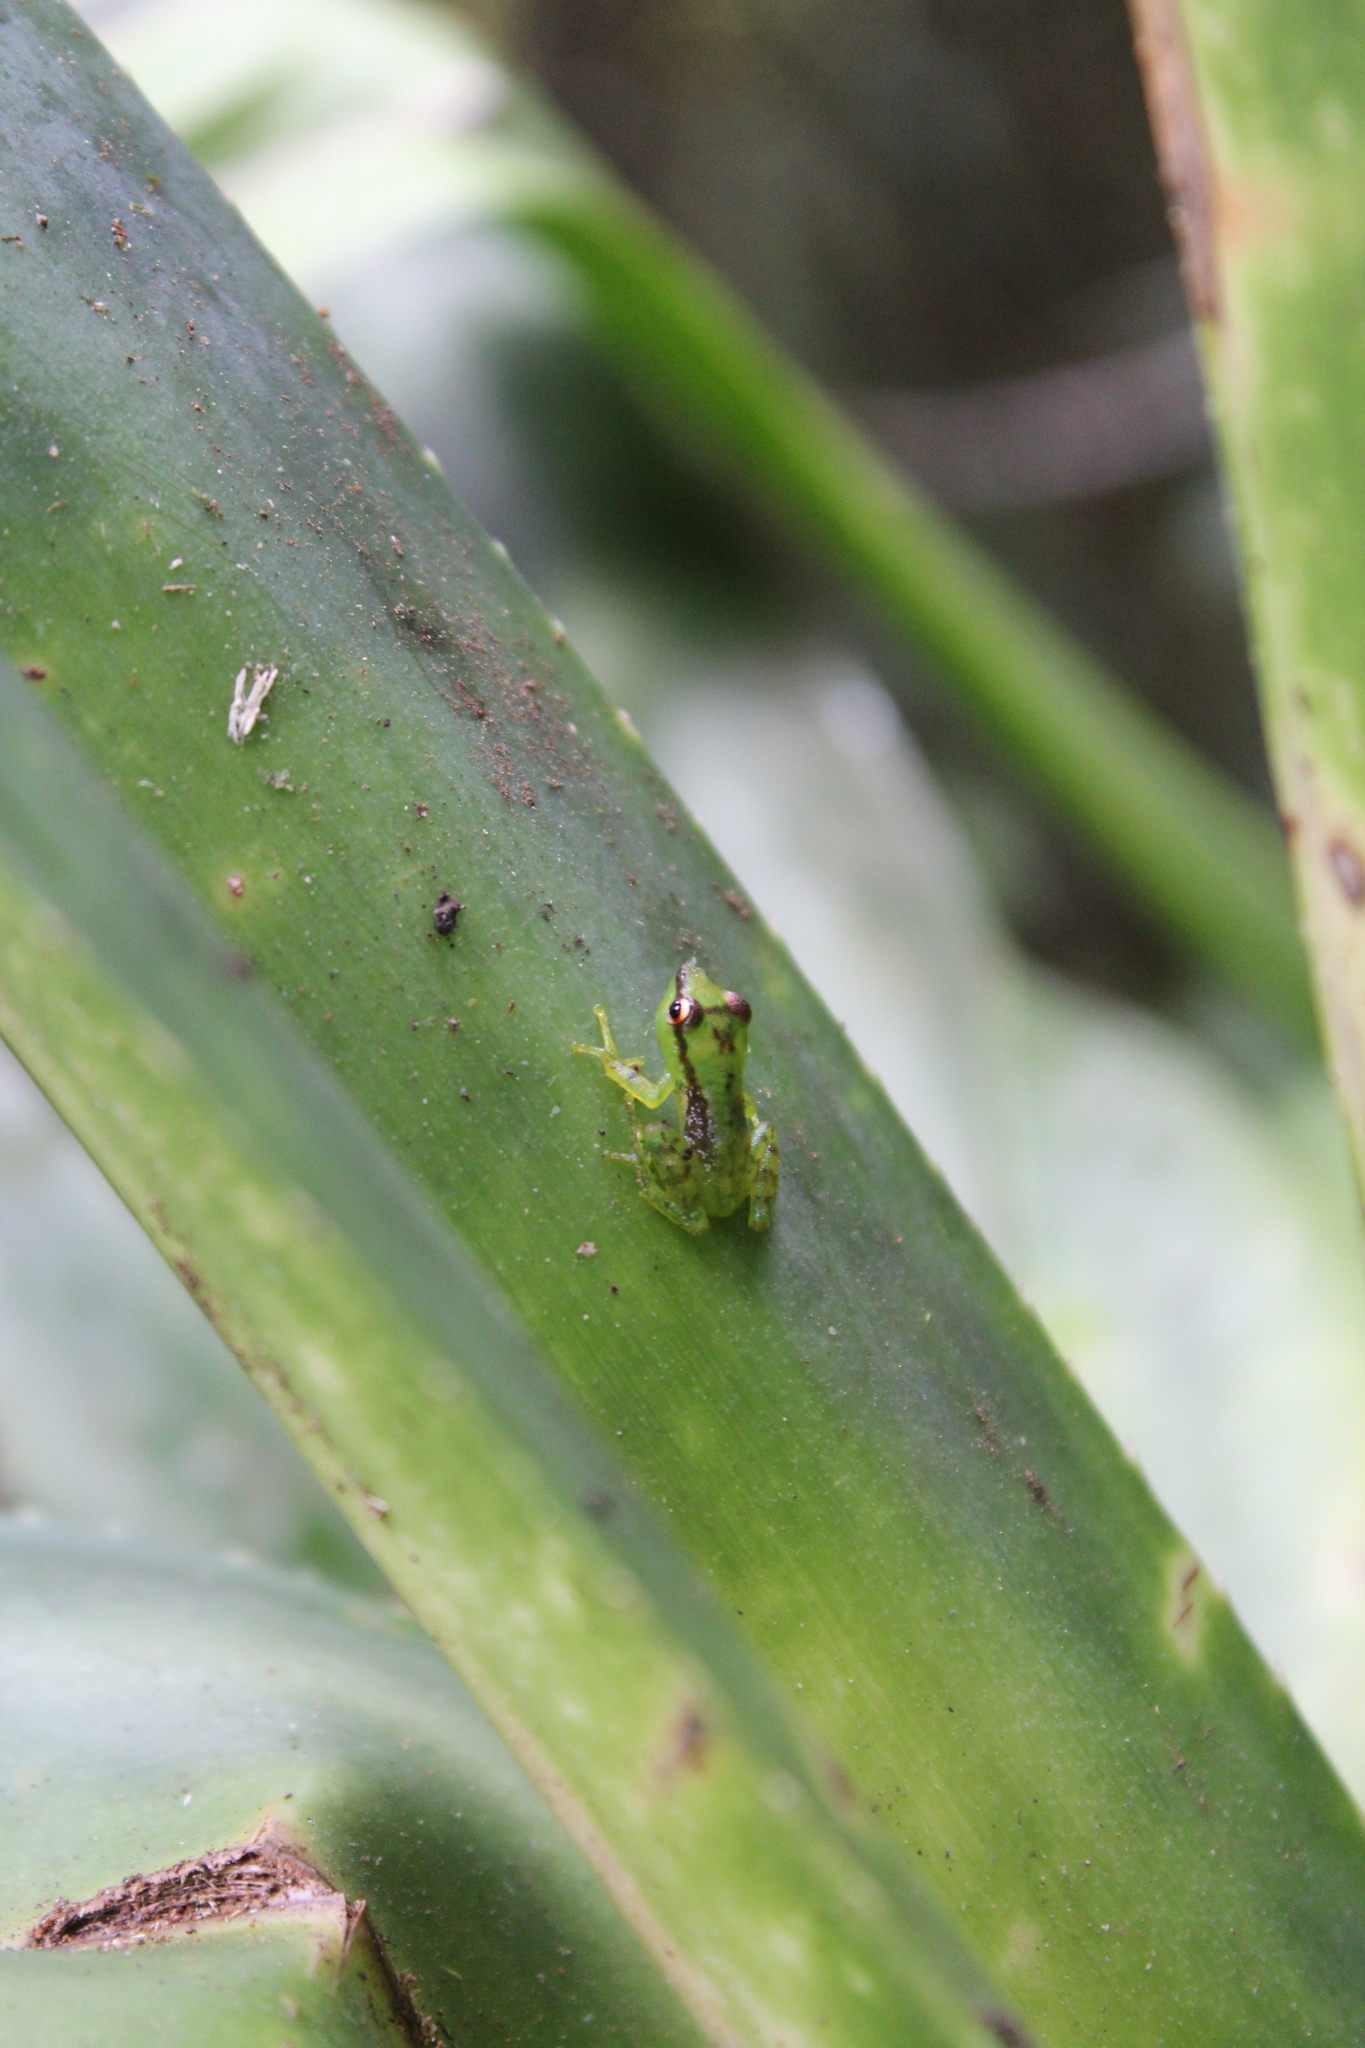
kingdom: Animalia
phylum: Chordata
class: Amphibia
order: Anura
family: Mantellidae
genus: Guibemantis
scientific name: Guibemantis pulcher
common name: Tsarafidy madagascar frog
